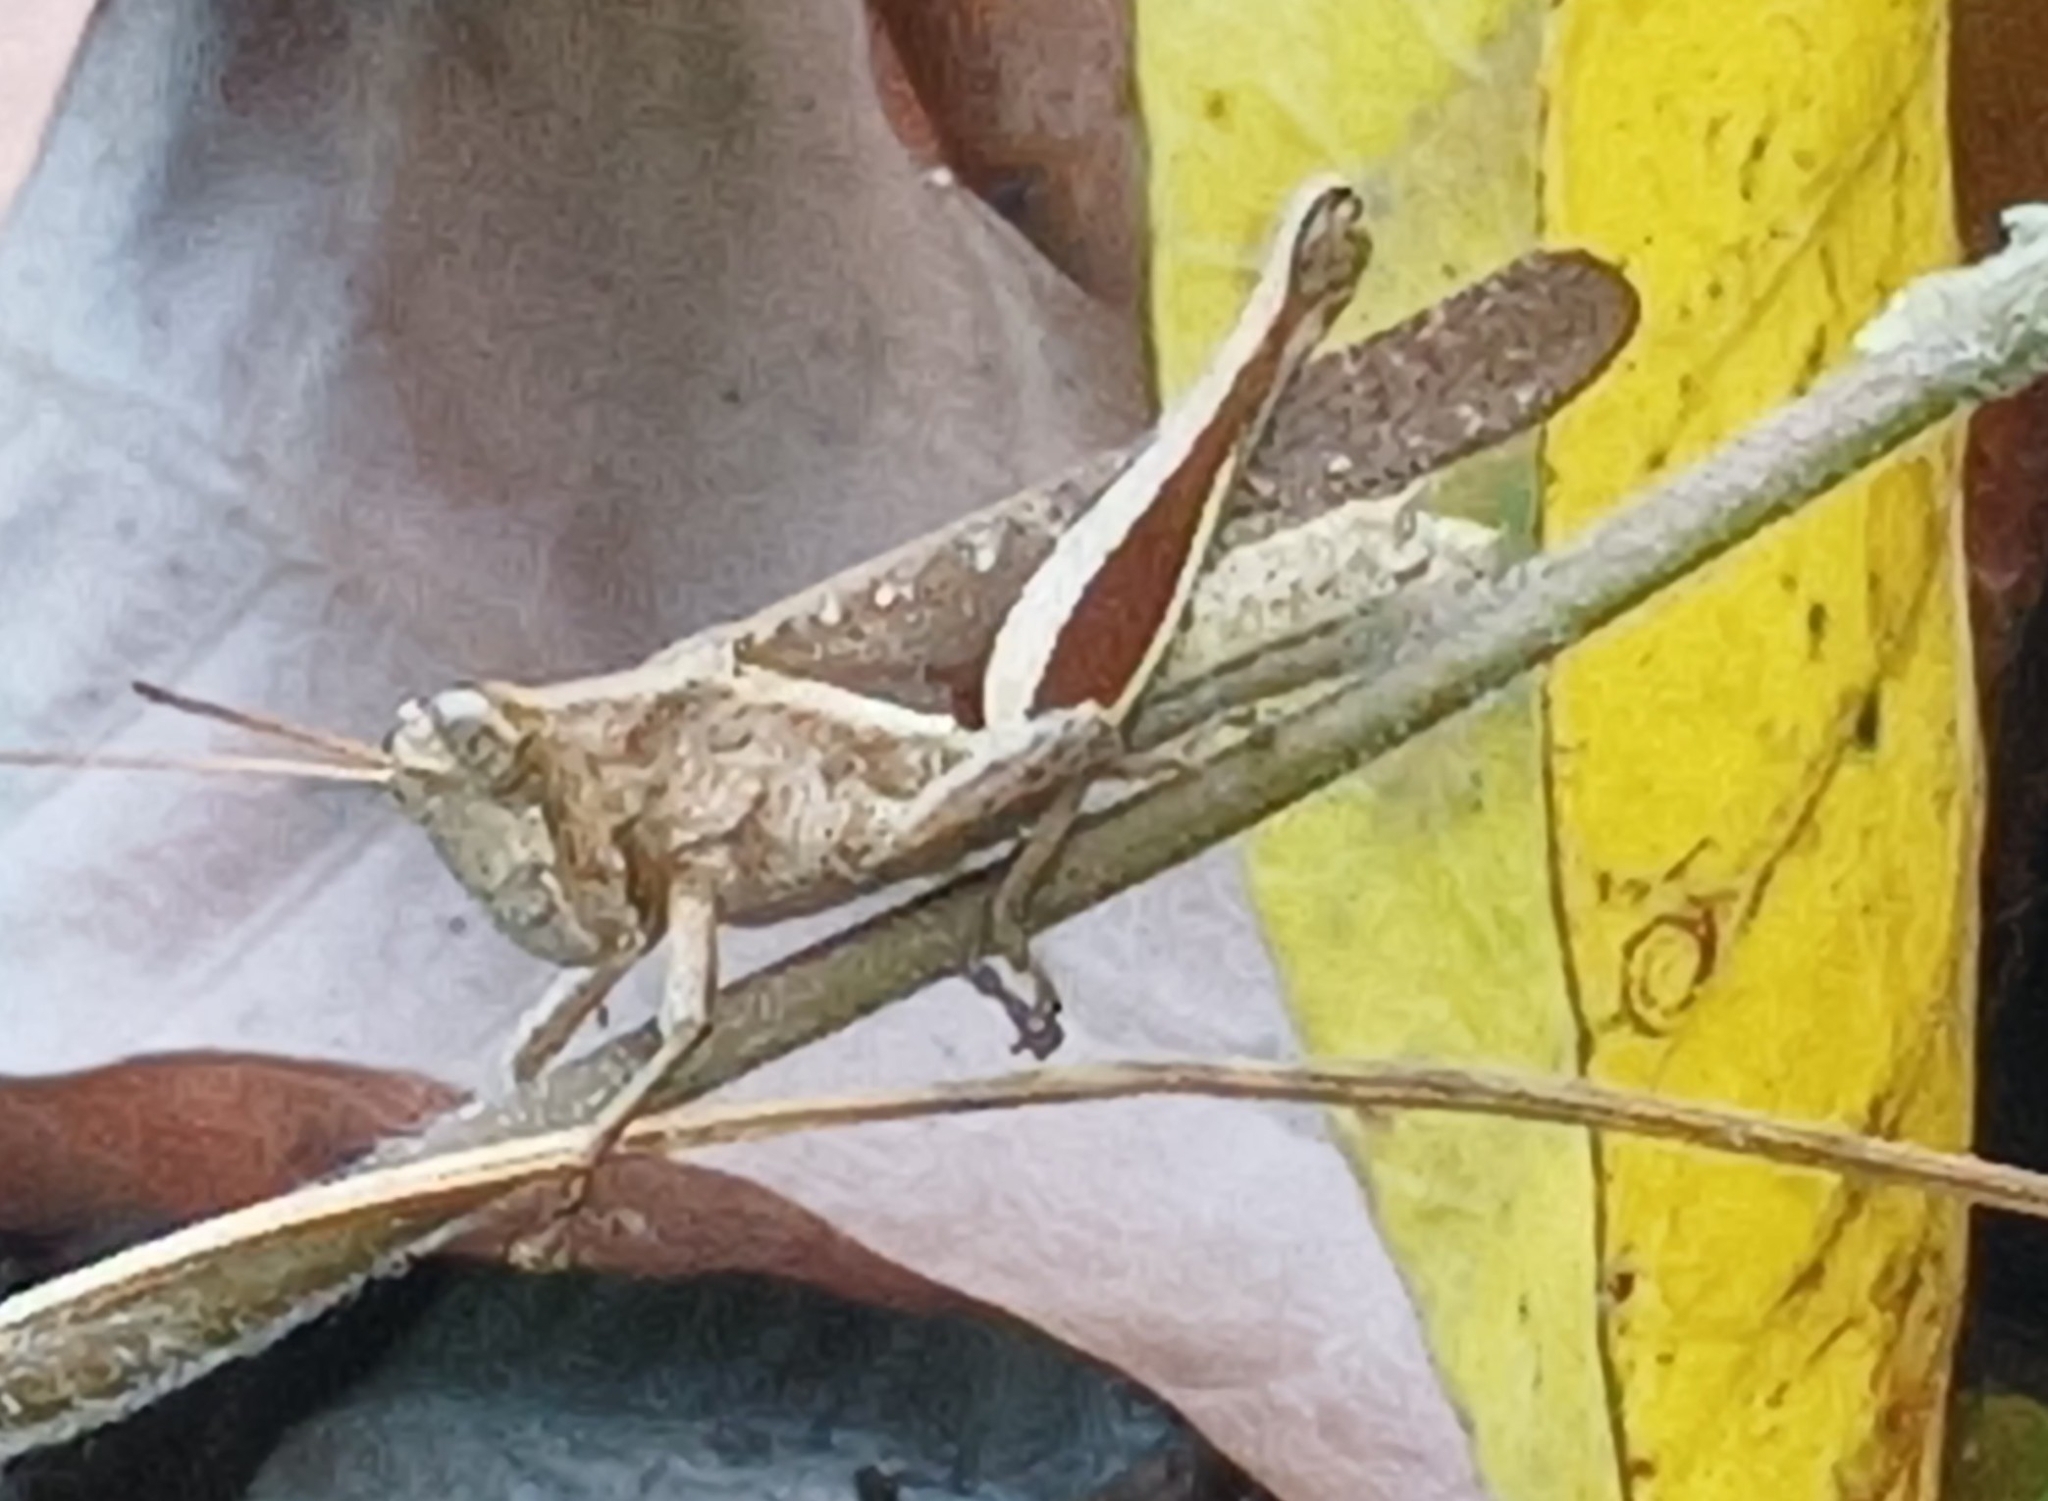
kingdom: Animalia
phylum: Arthropoda
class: Insecta
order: Orthoptera
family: Acrididae
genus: Abracris
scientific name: Abracris flavolineata
